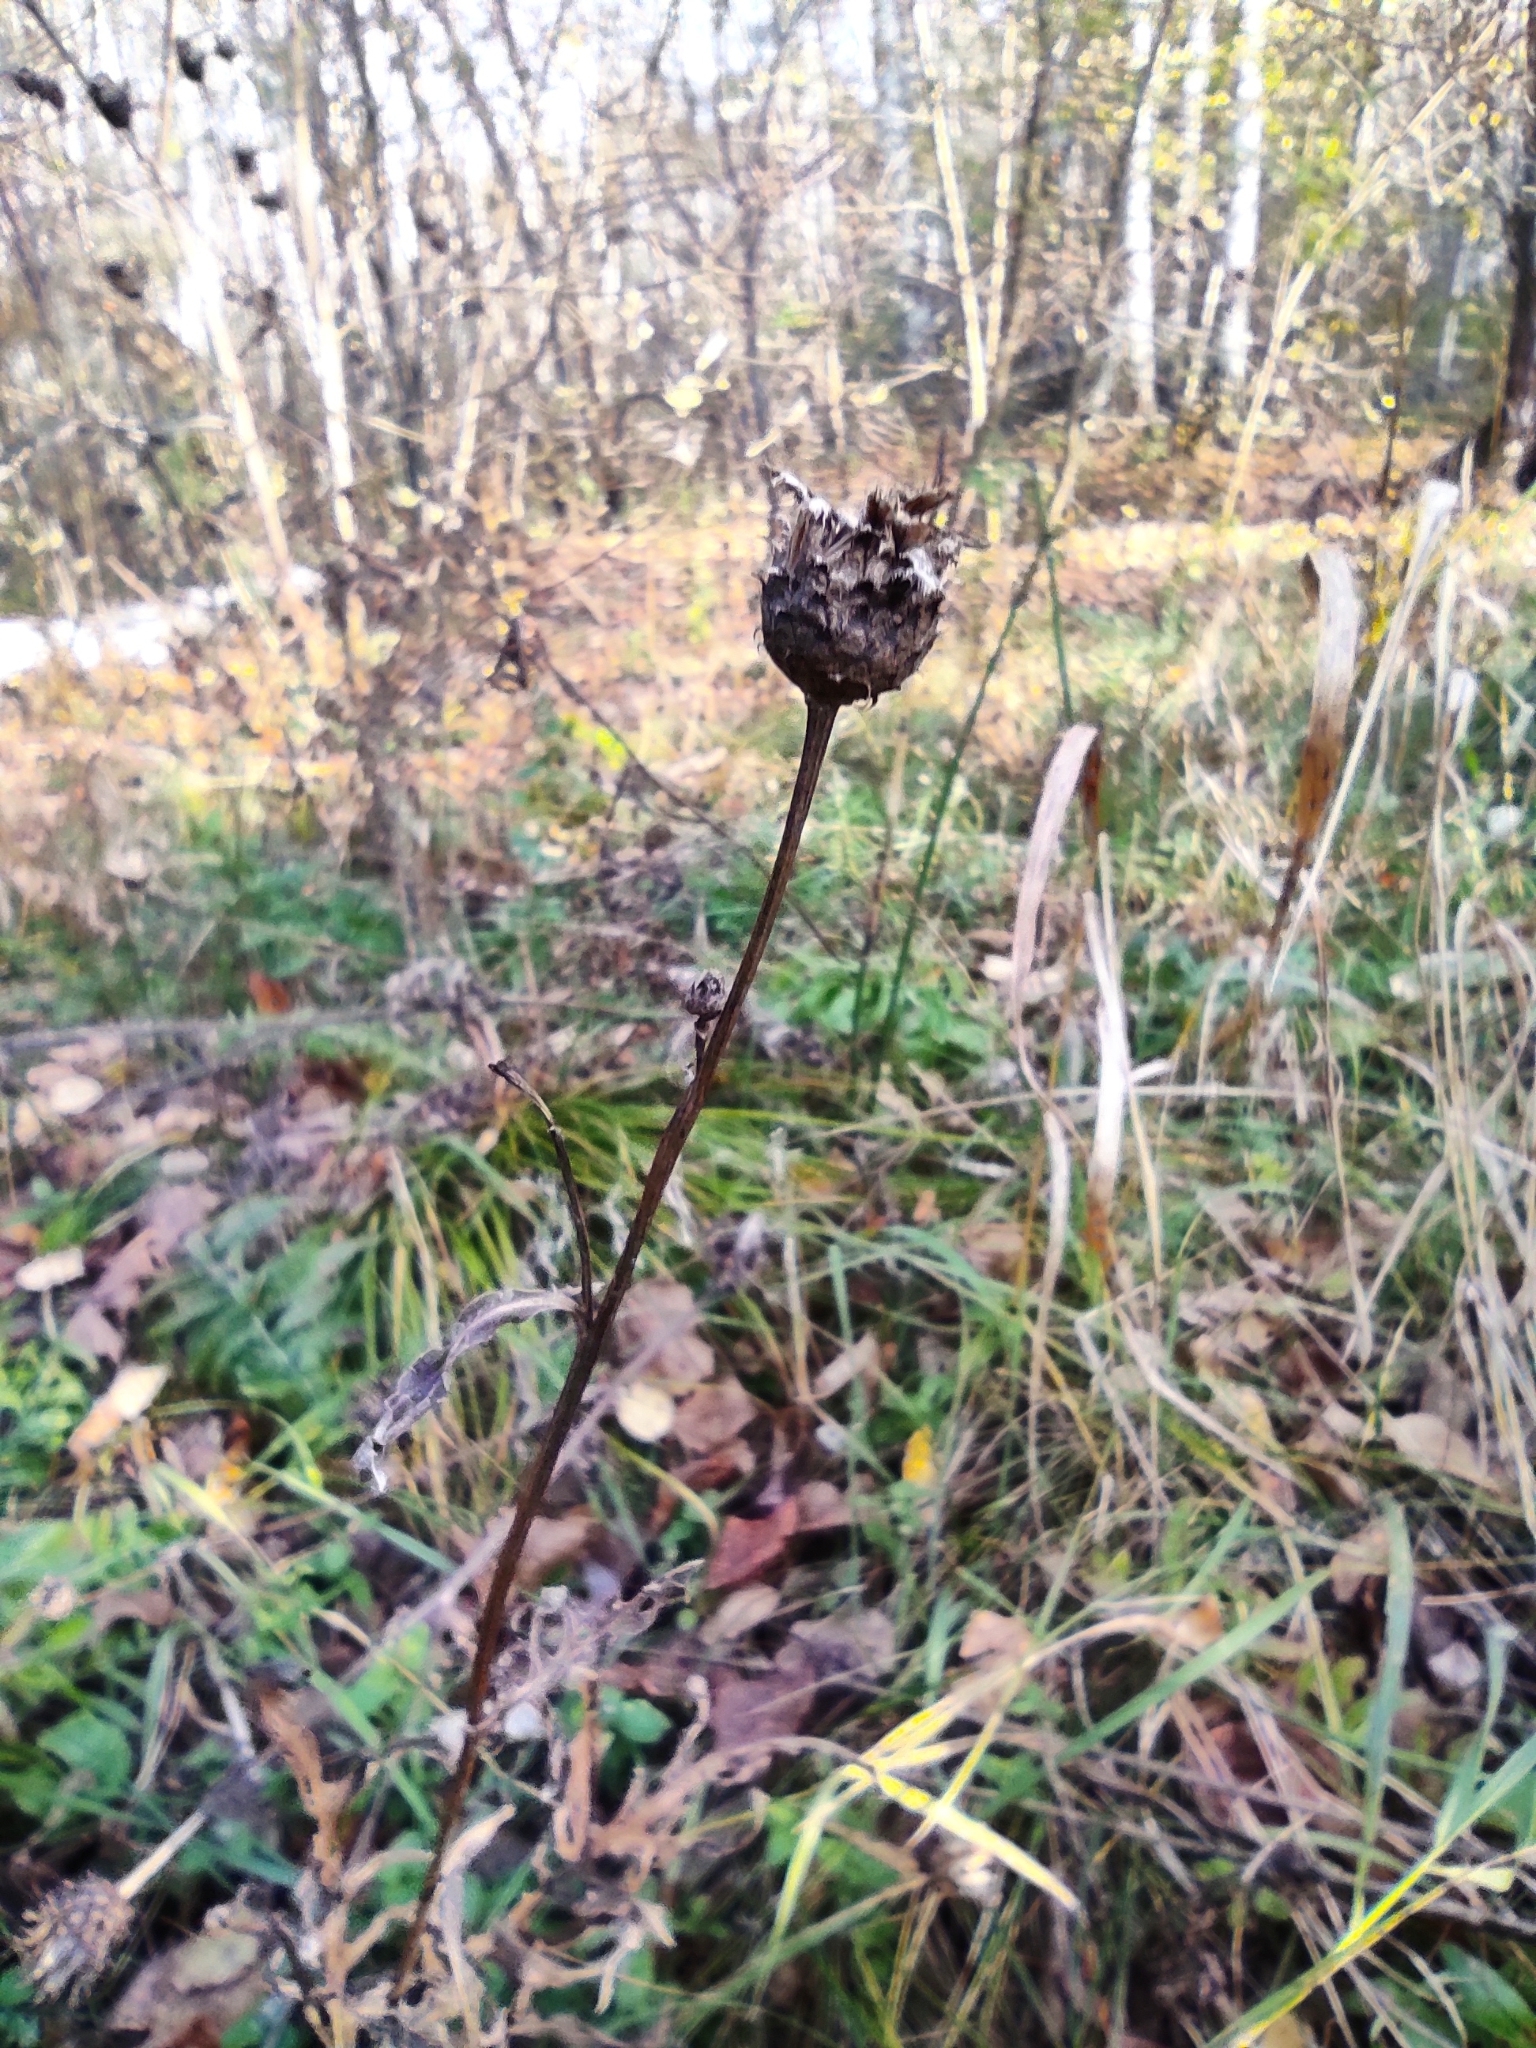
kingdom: Plantae
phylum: Tracheophyta
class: Magnoliopsida
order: Asterales
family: Asteraceae
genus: Centaurea
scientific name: Centaurea scabiosa
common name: Greater knapweed
